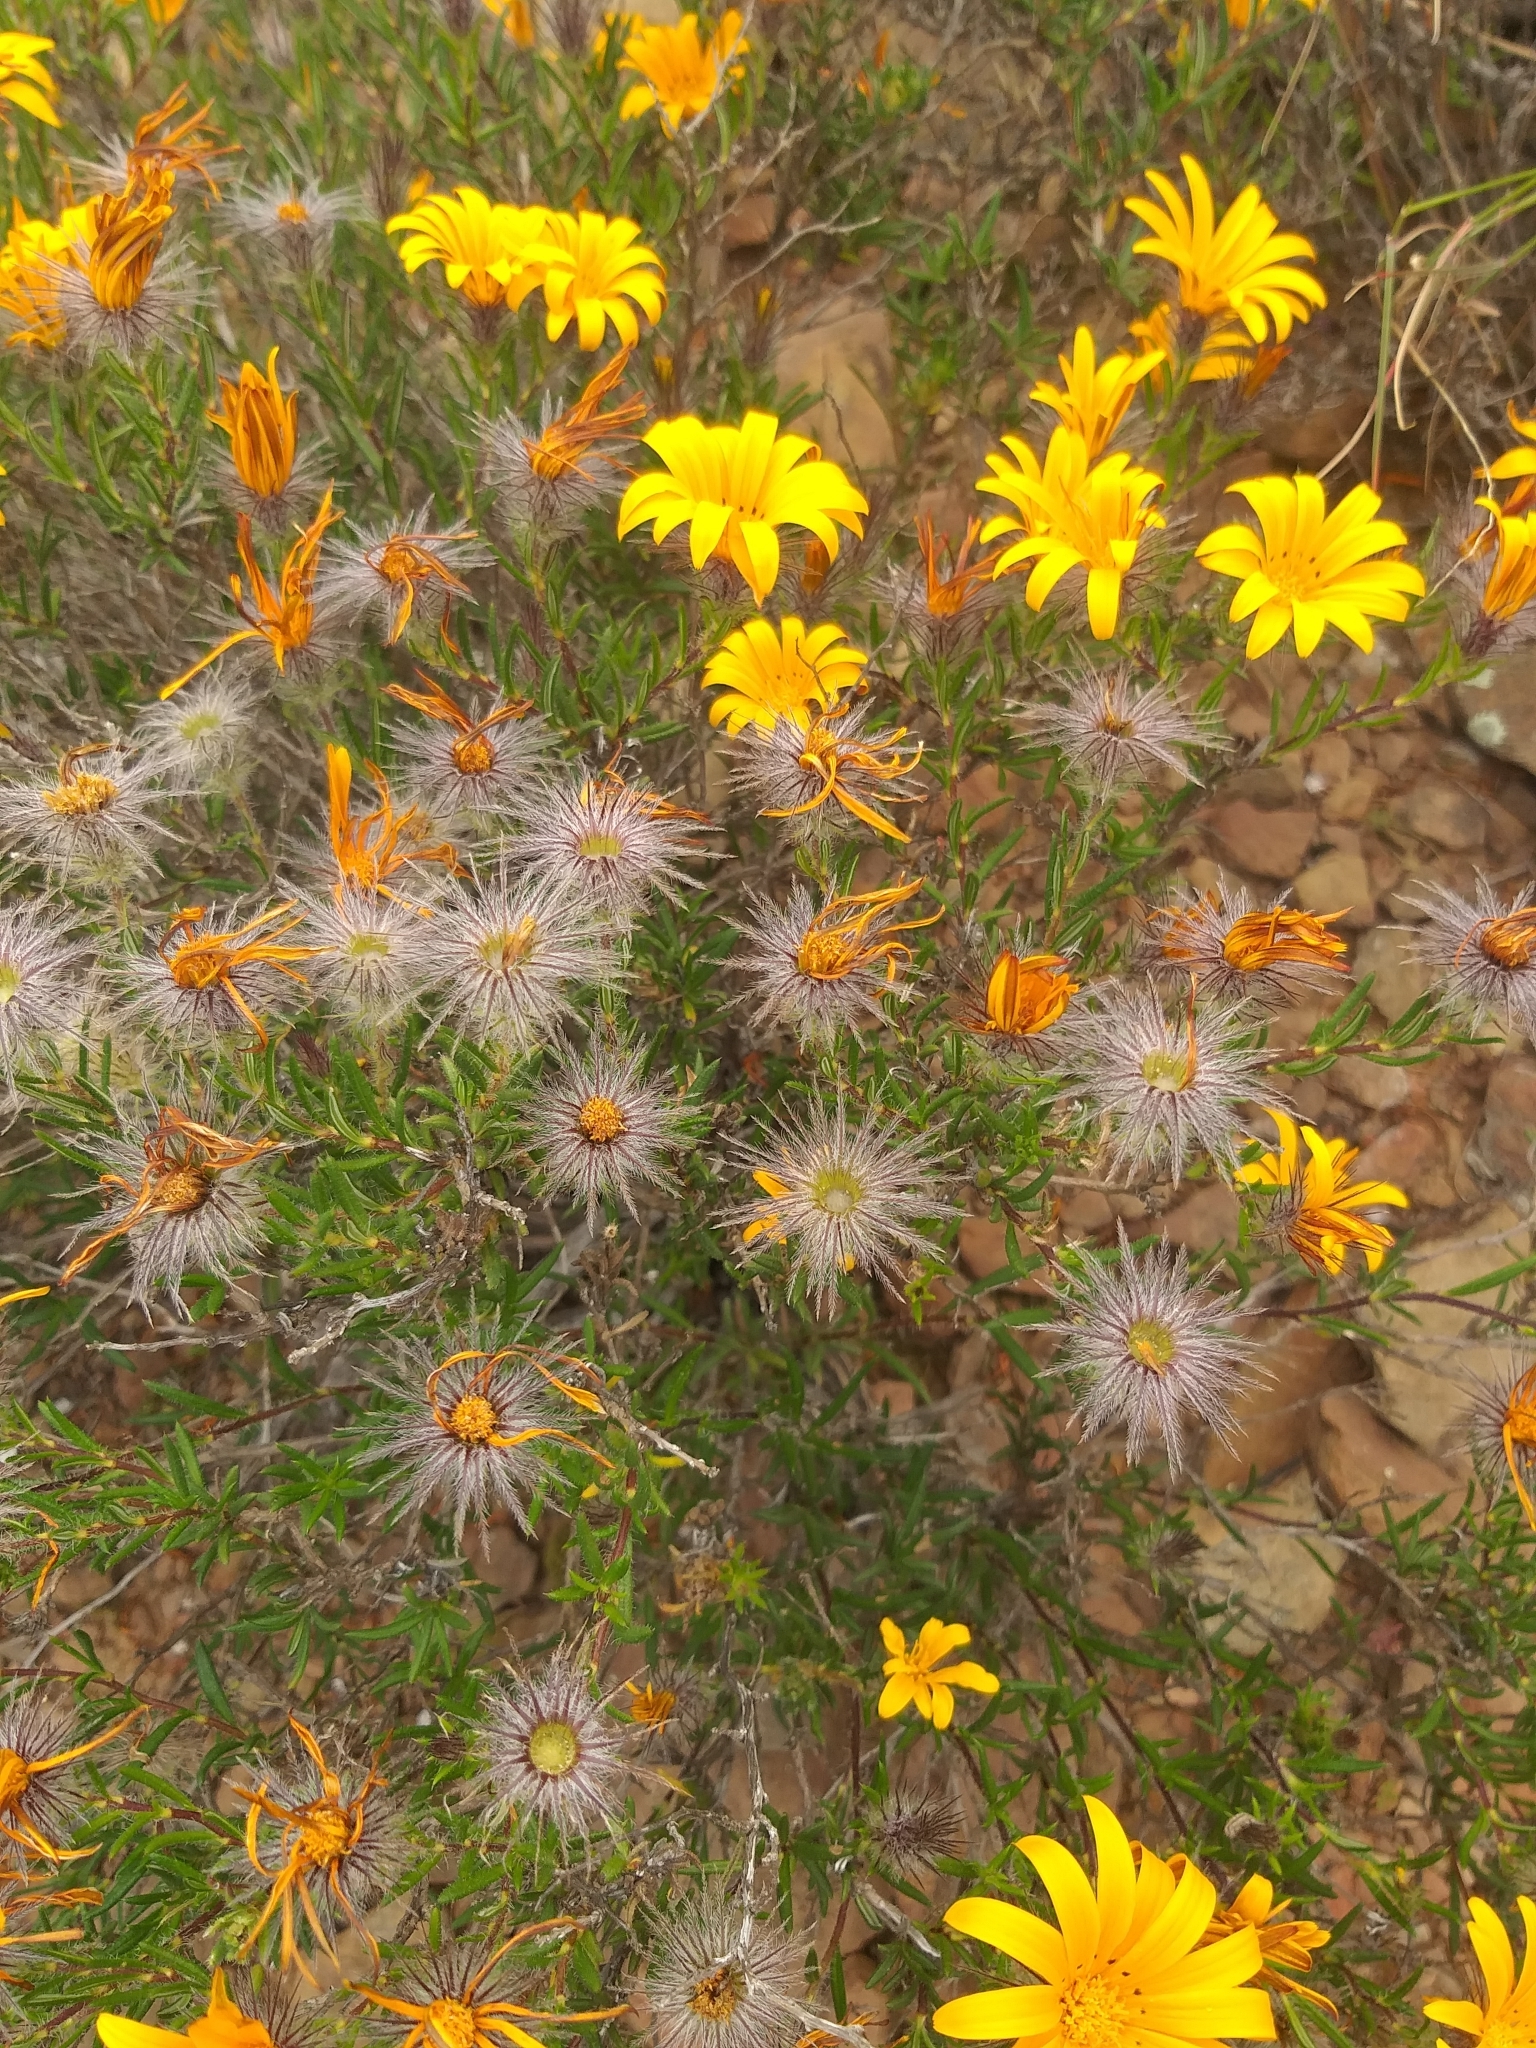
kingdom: Plantae
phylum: Tracheophyta
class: Magnoliopsida
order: Asterales
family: Asteraceae
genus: Hirpicium
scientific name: Hirpicium integrifolium
